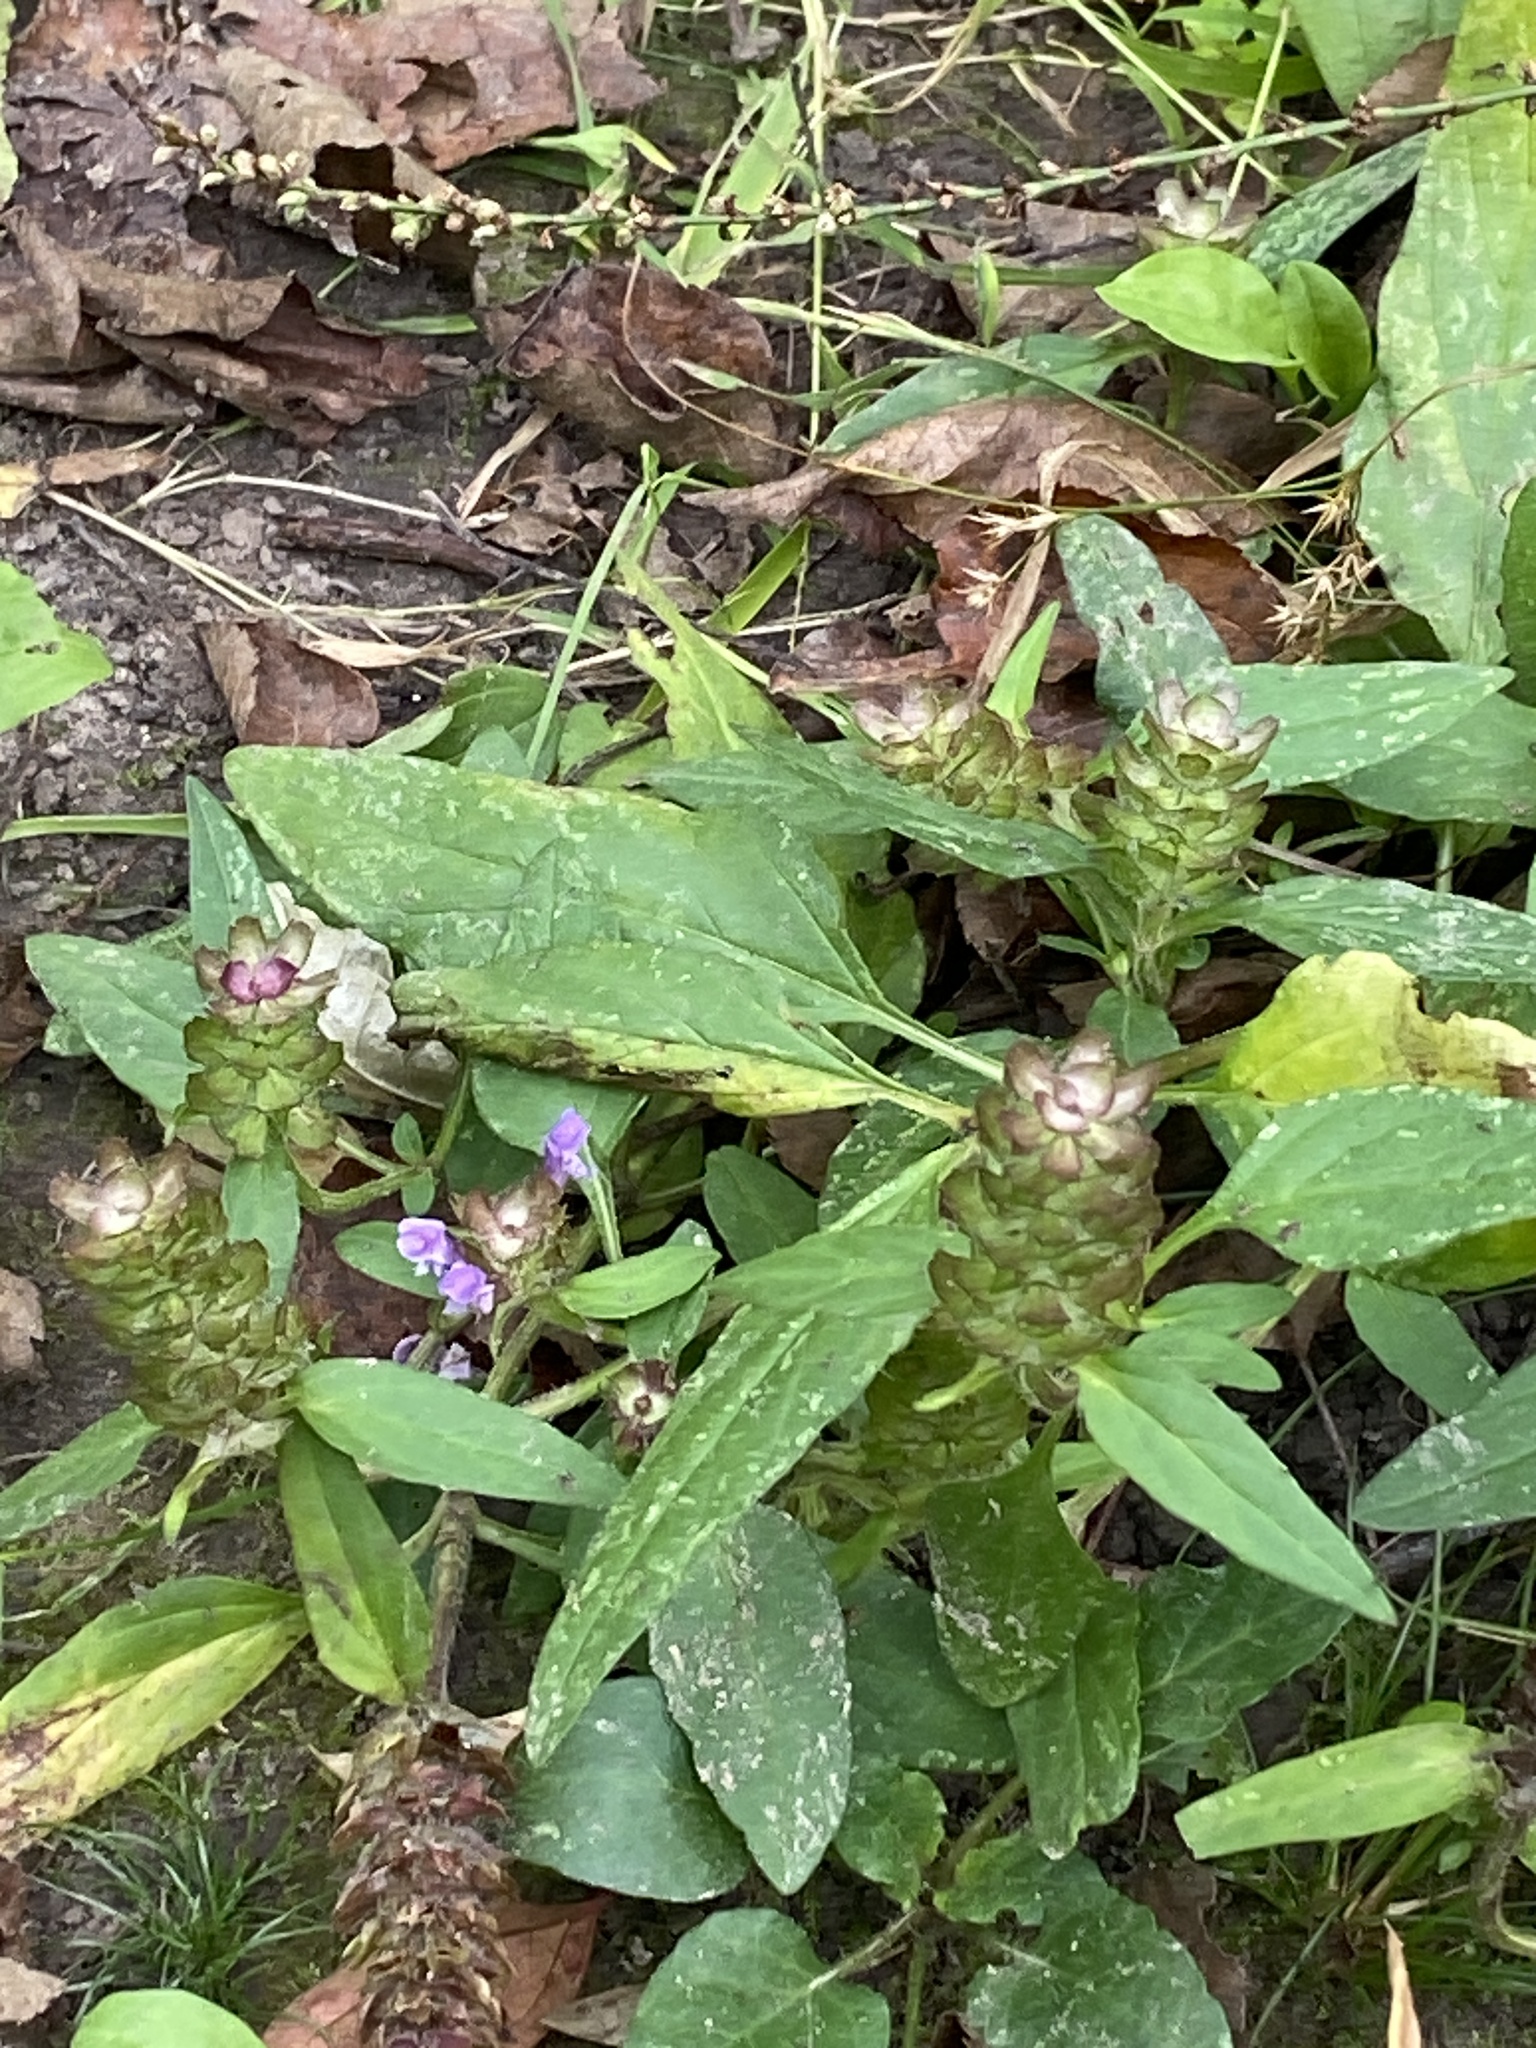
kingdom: Plantae
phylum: Tracheophyta
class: Magnoliopsida
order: Lamiales
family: Lamiaceae
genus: Prunella
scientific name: Prunella vulgaris
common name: Heal-all
